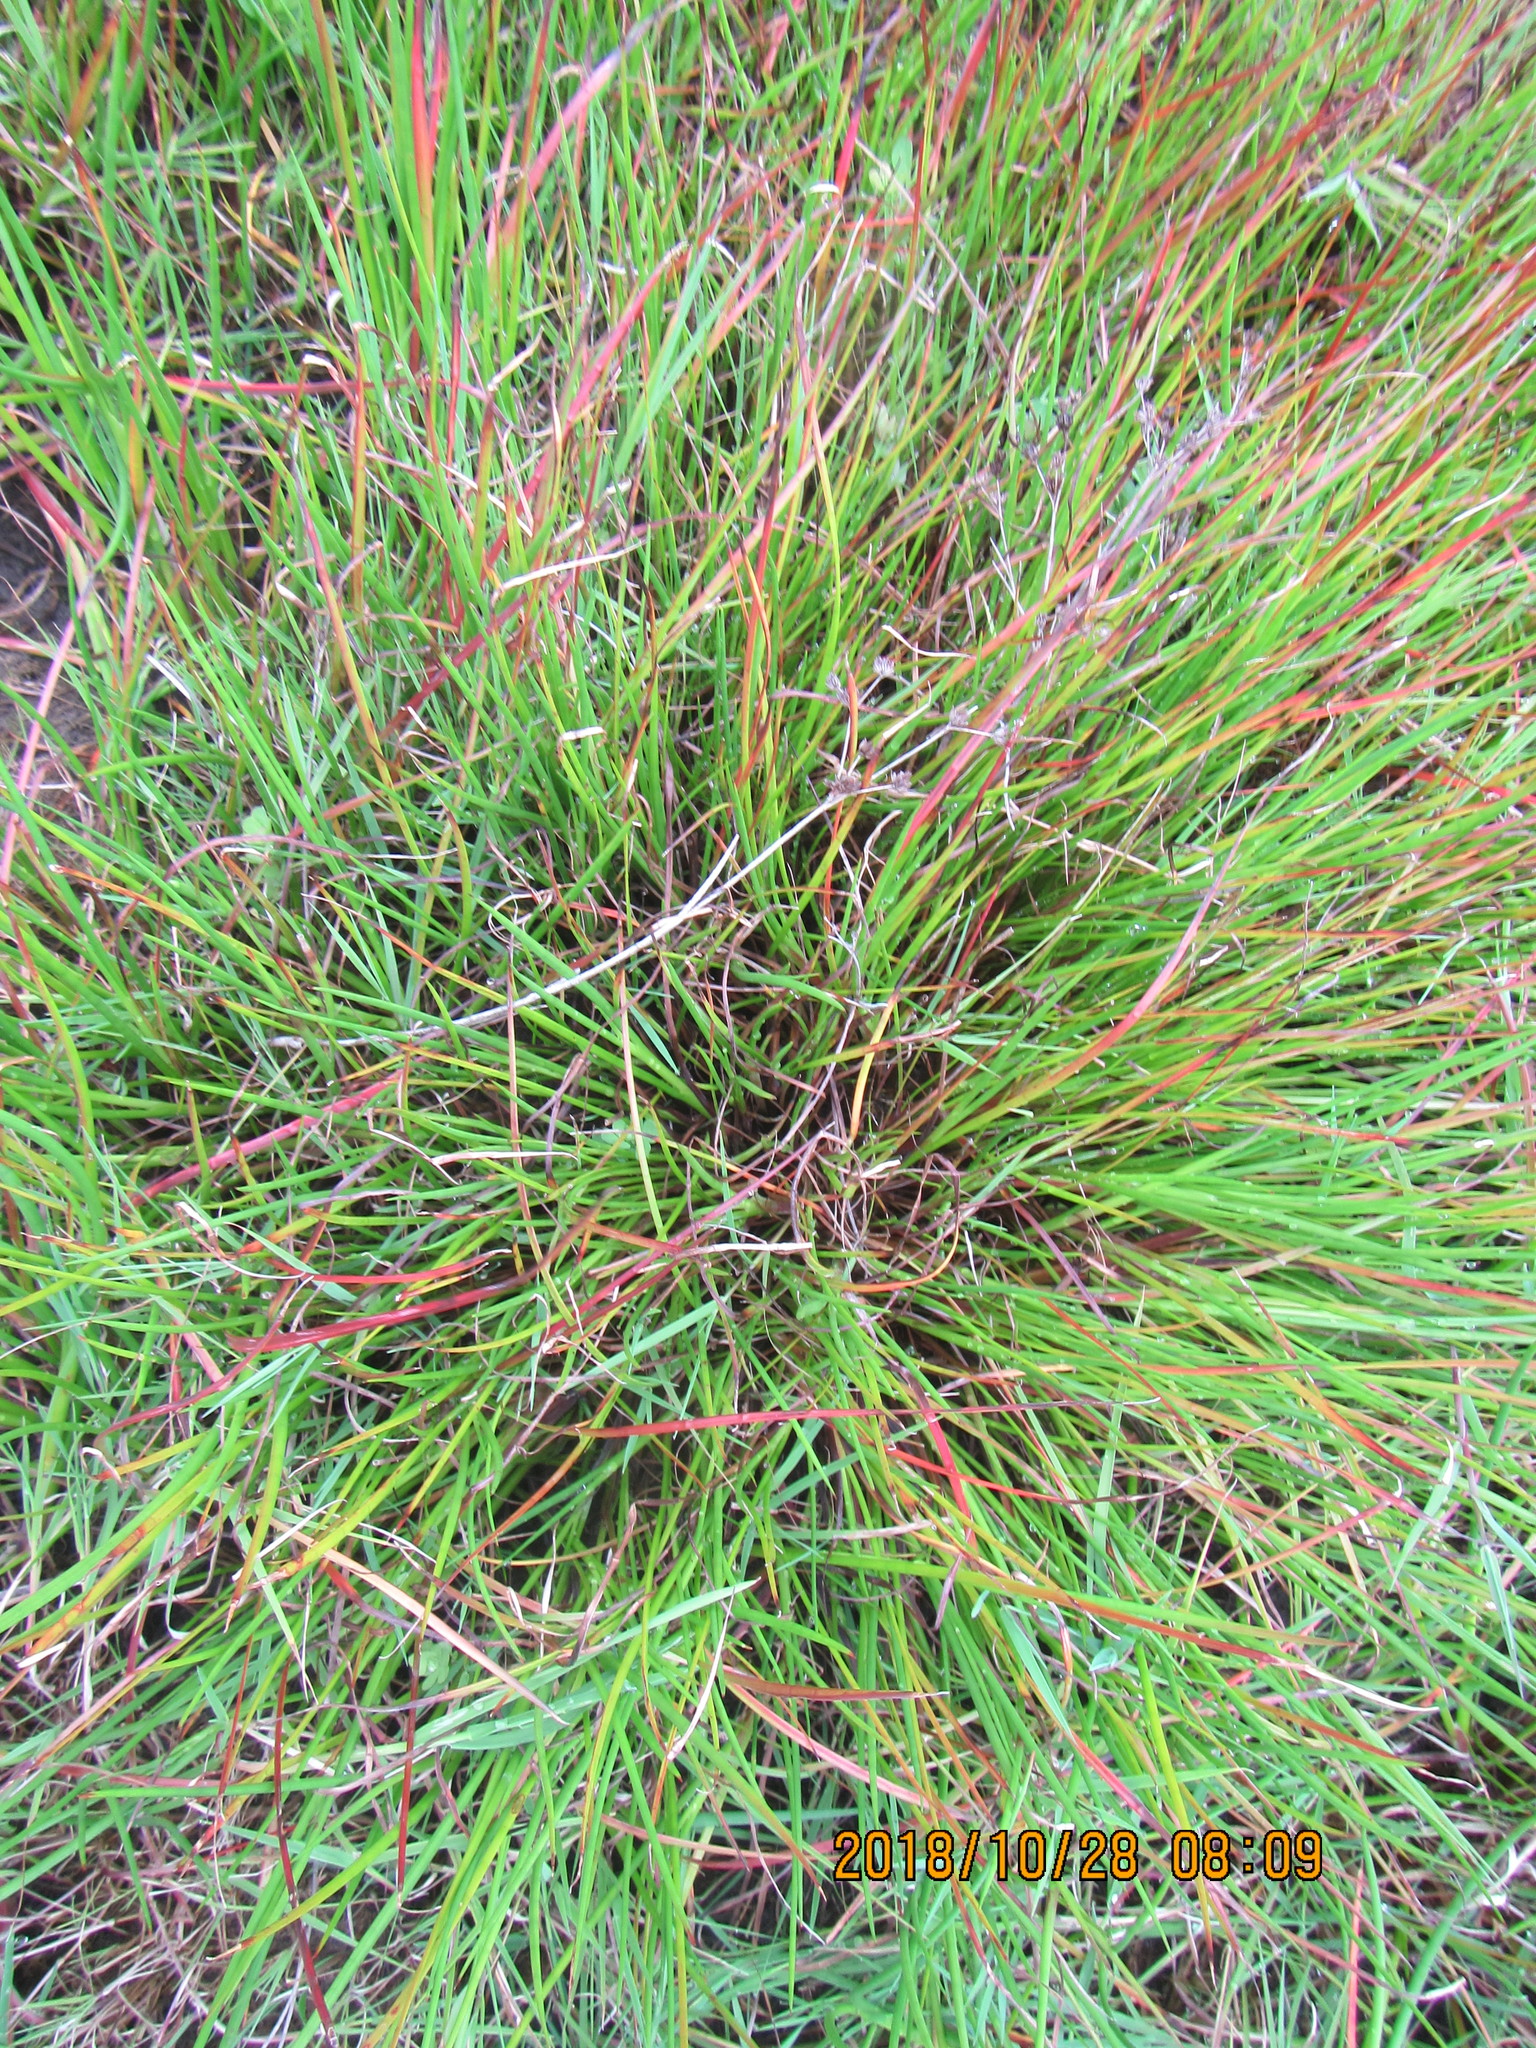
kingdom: Plantae
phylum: Tracheophyta
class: Liliopsida
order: Poales
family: Juncaceae
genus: Juncus
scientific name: Juncus articulatus
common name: Jointed rush
